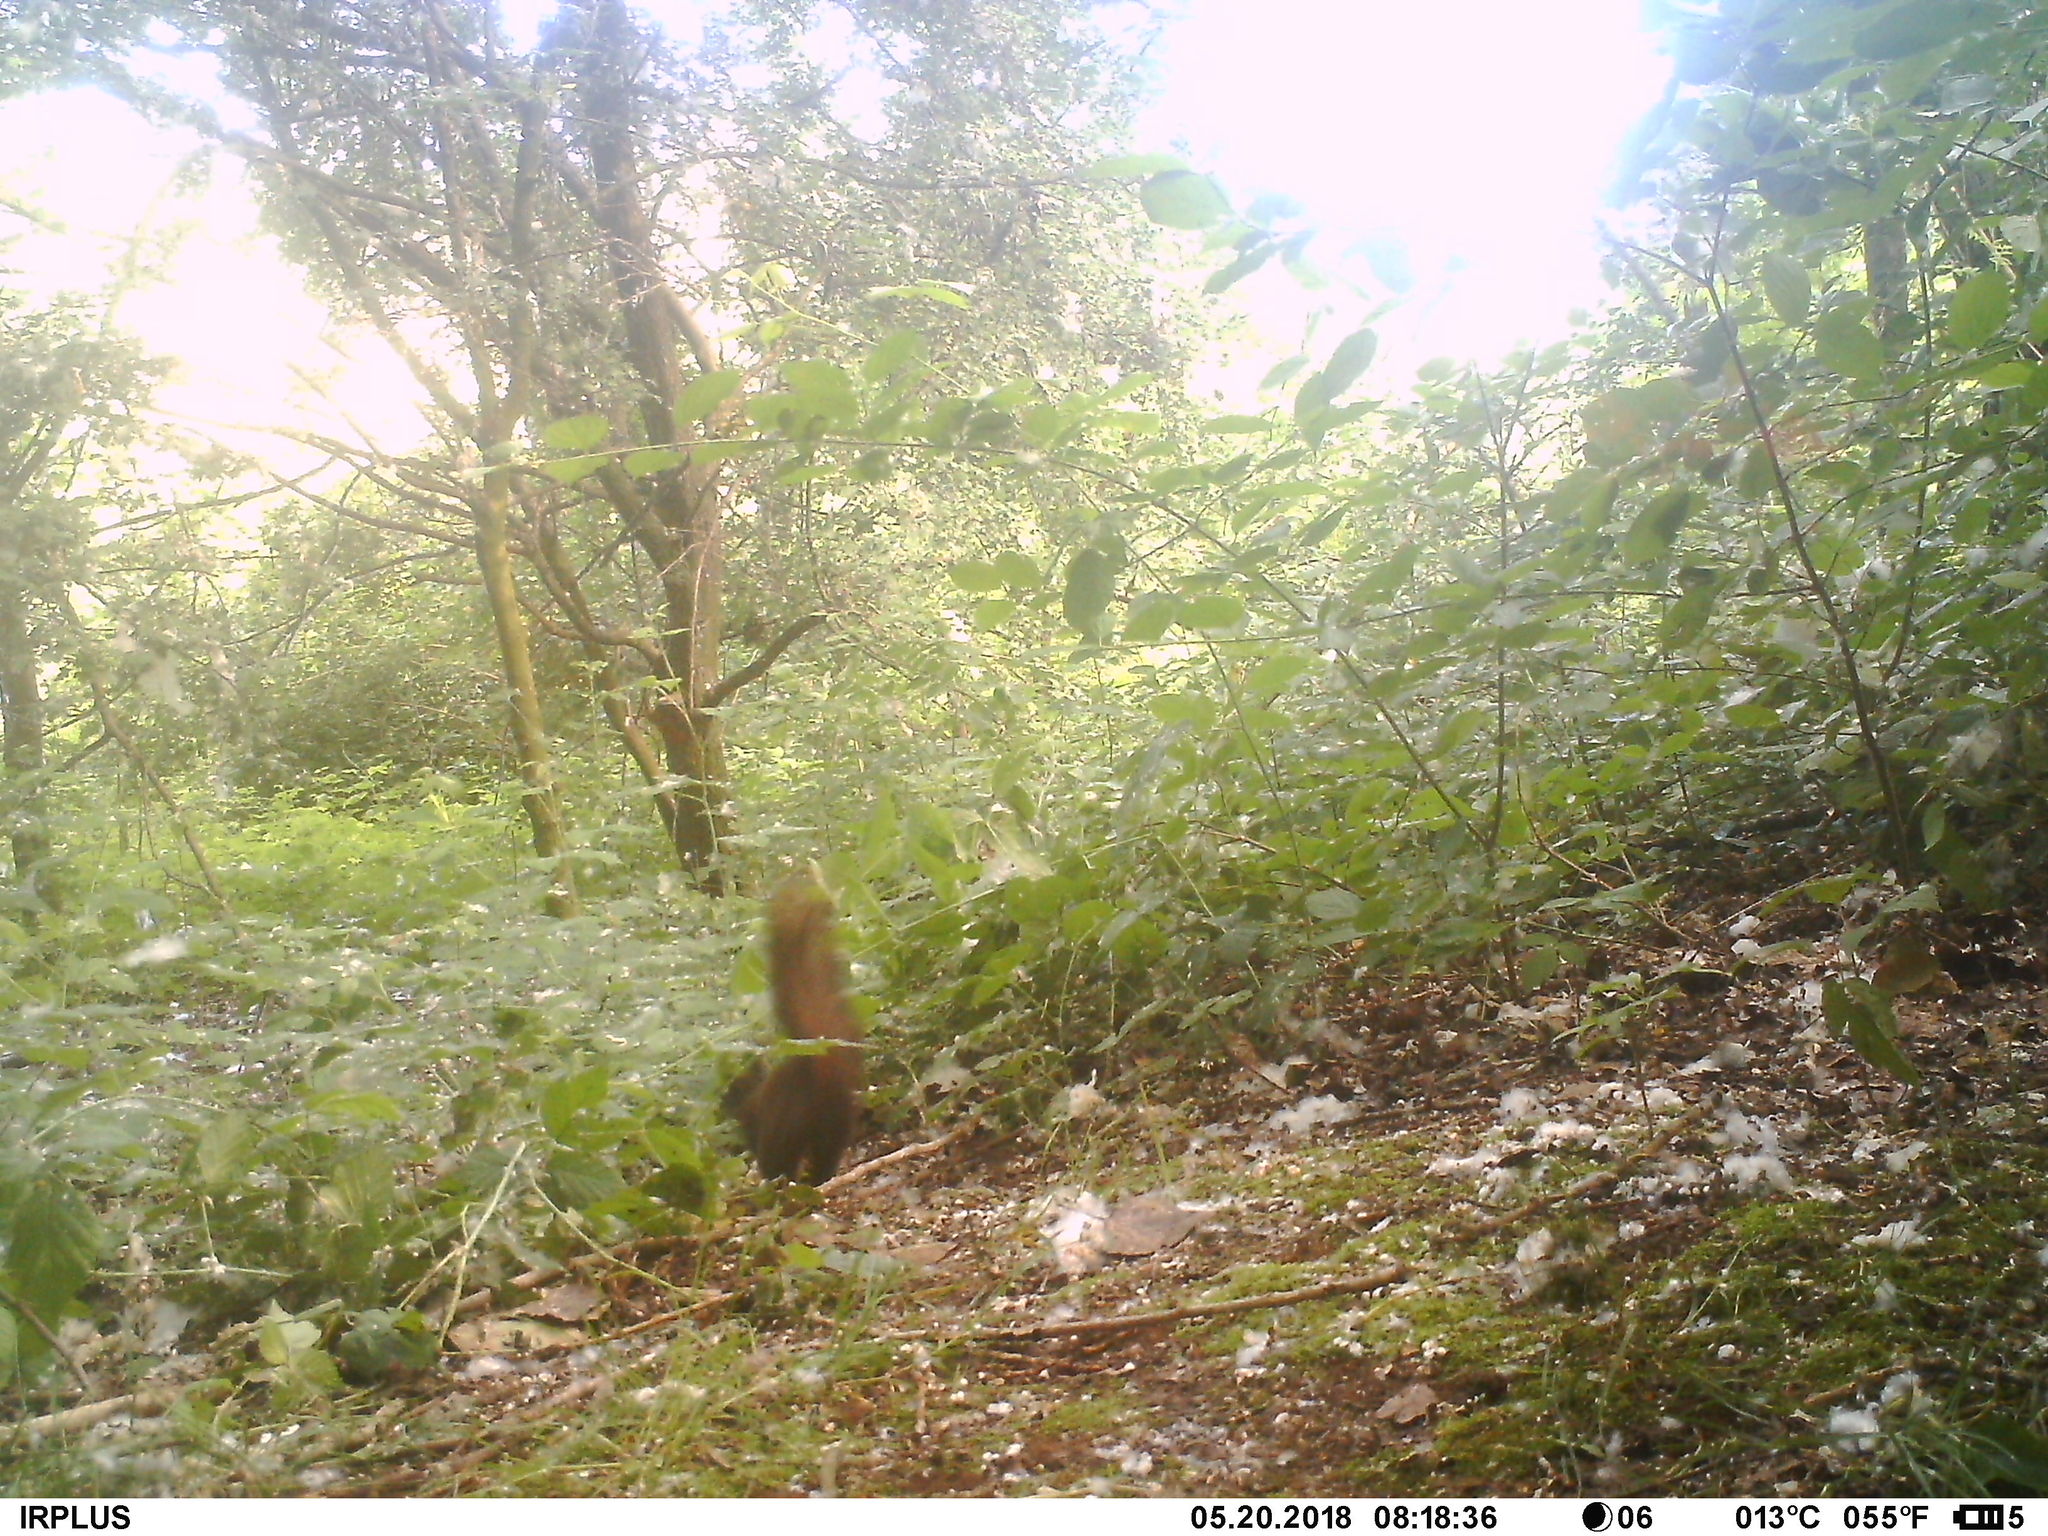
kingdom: Animalia
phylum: Chordata
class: Mammalia
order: Rodentia
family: Sciuridae
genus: Sciurus
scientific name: Sciurus vulgaris
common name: Eurasian red squirrel
